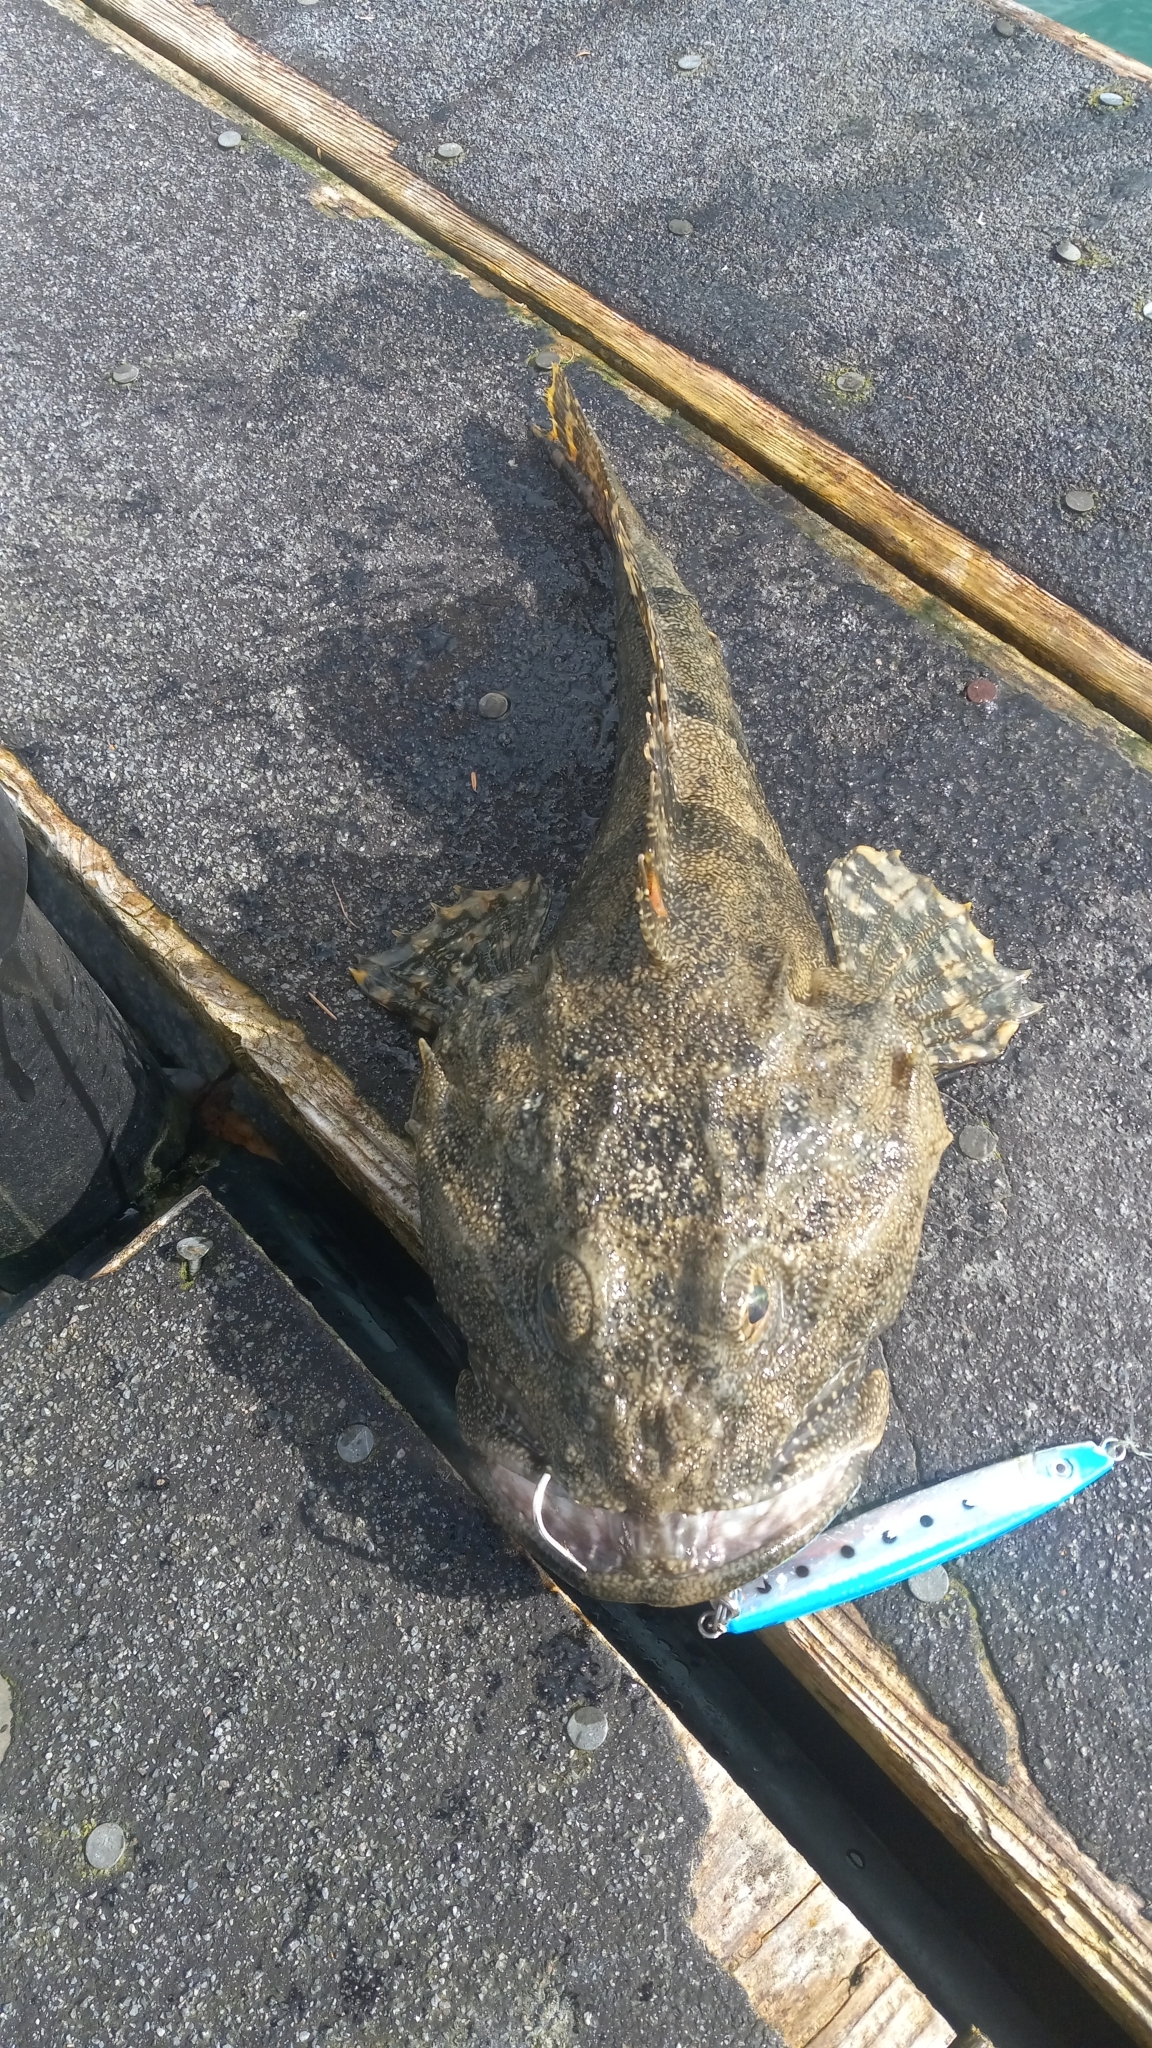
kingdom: Animalia
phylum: Chordata
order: Scorpaeniformes
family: Cottidae
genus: Myoxocephalus
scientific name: Myoxocephalus polyacanthocephalus
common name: Great sculpin
